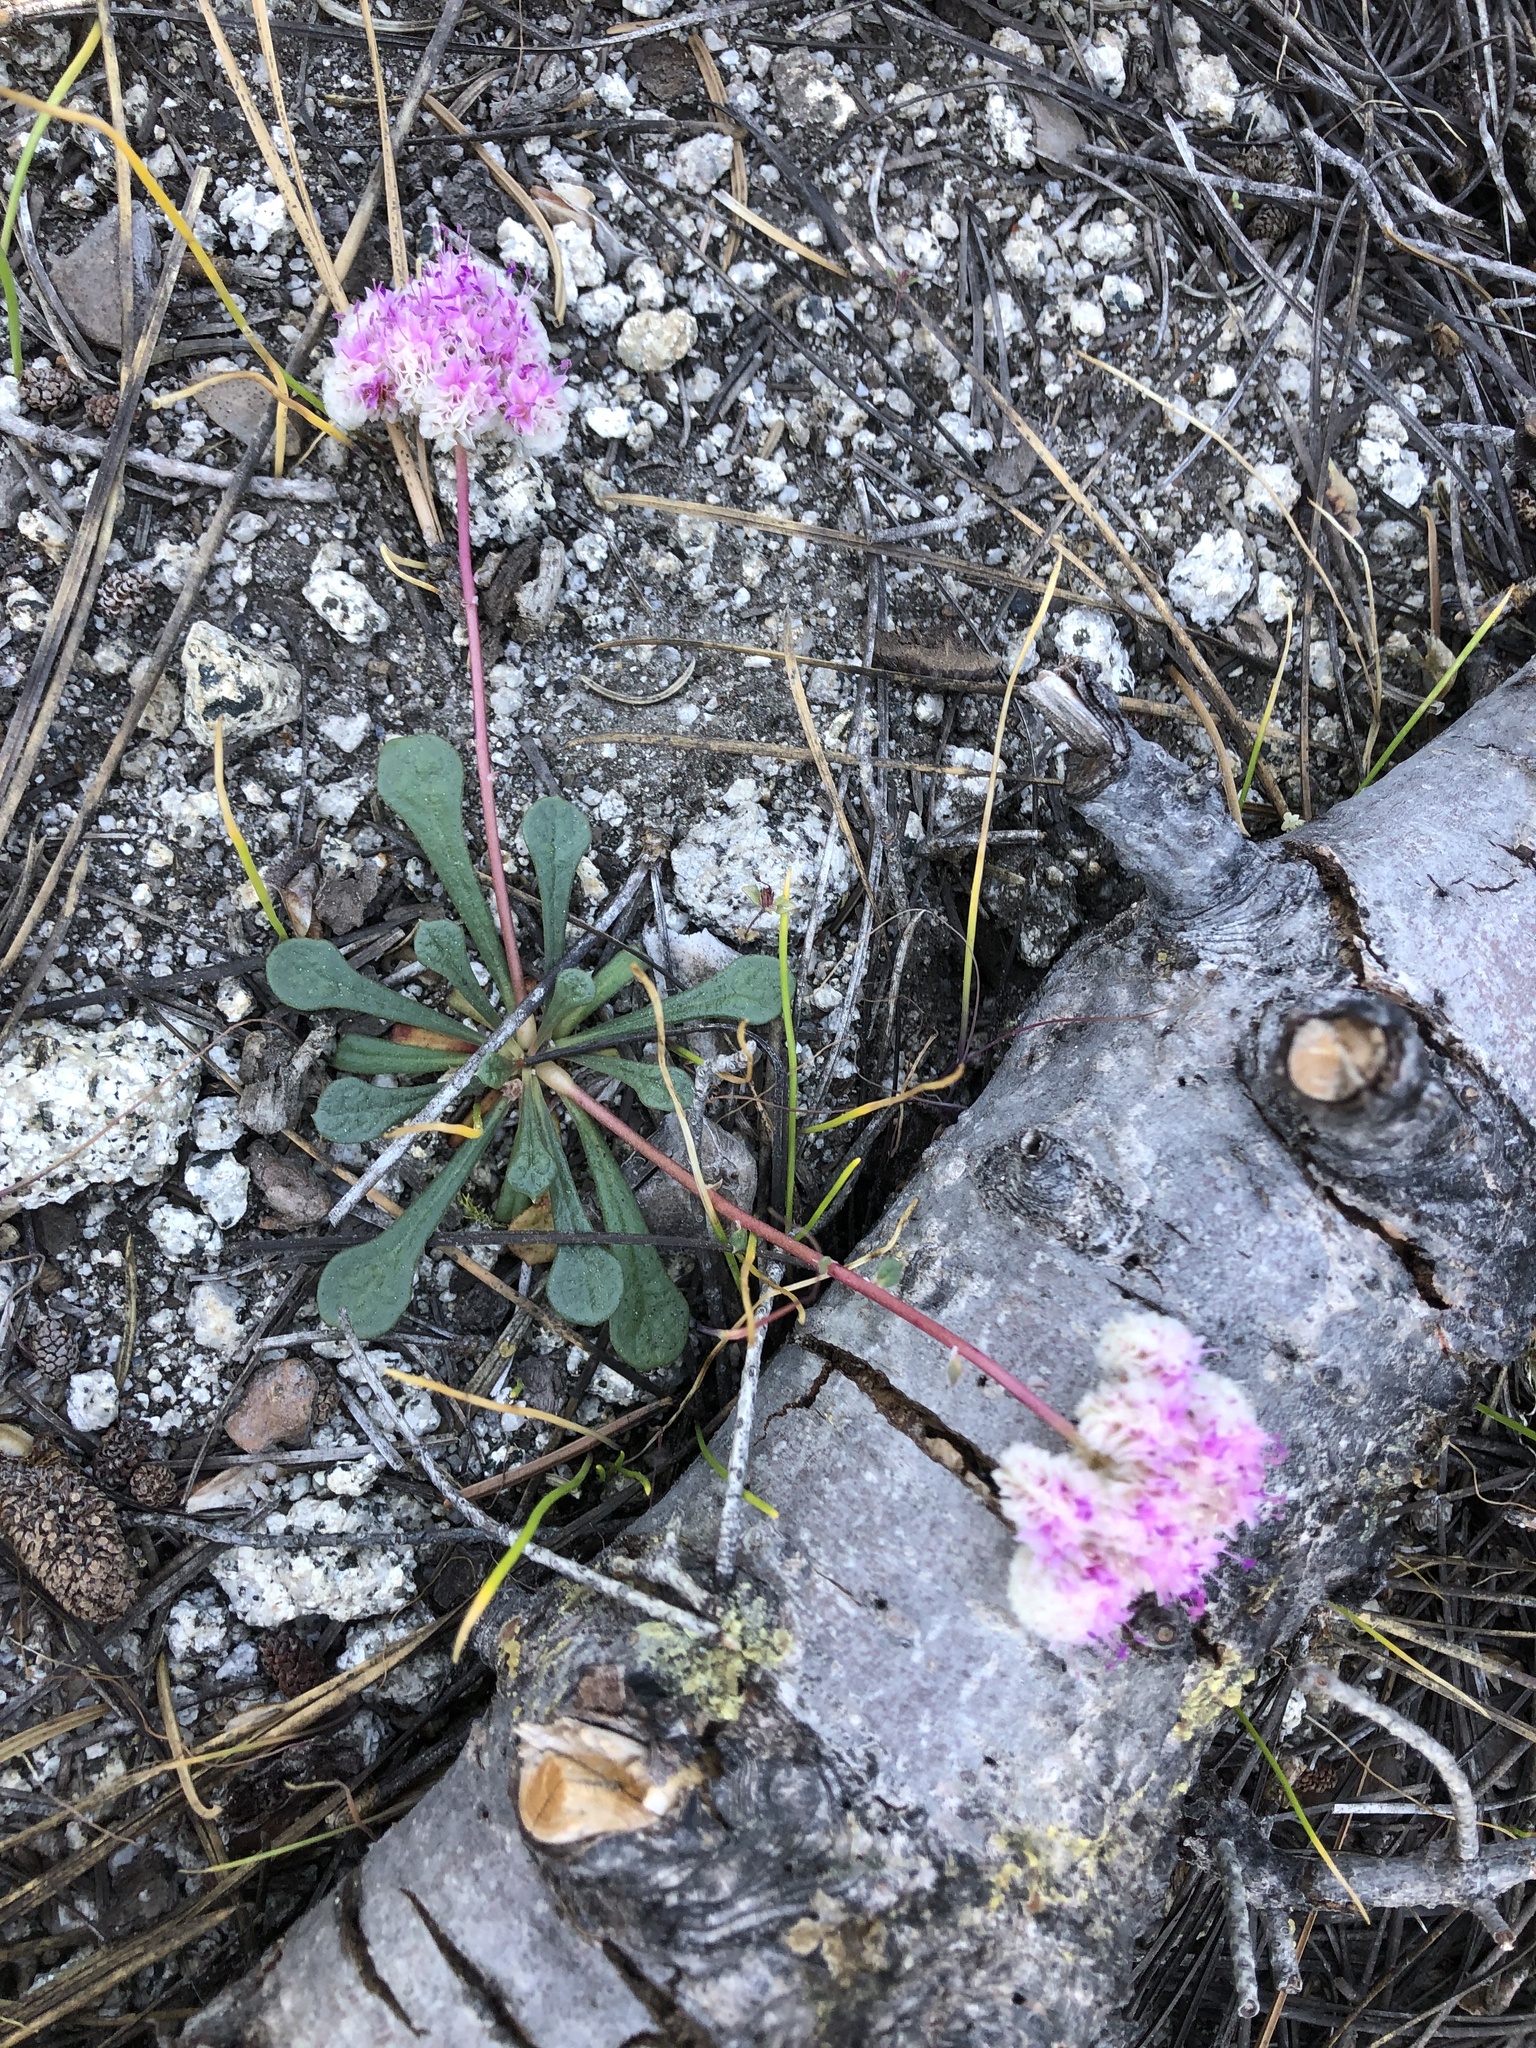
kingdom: Plantae
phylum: Tracheophyta
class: Magnoliopsida
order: Caryophyllales
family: Montiaceae
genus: Calyptridium
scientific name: Calyptridium monospermum
